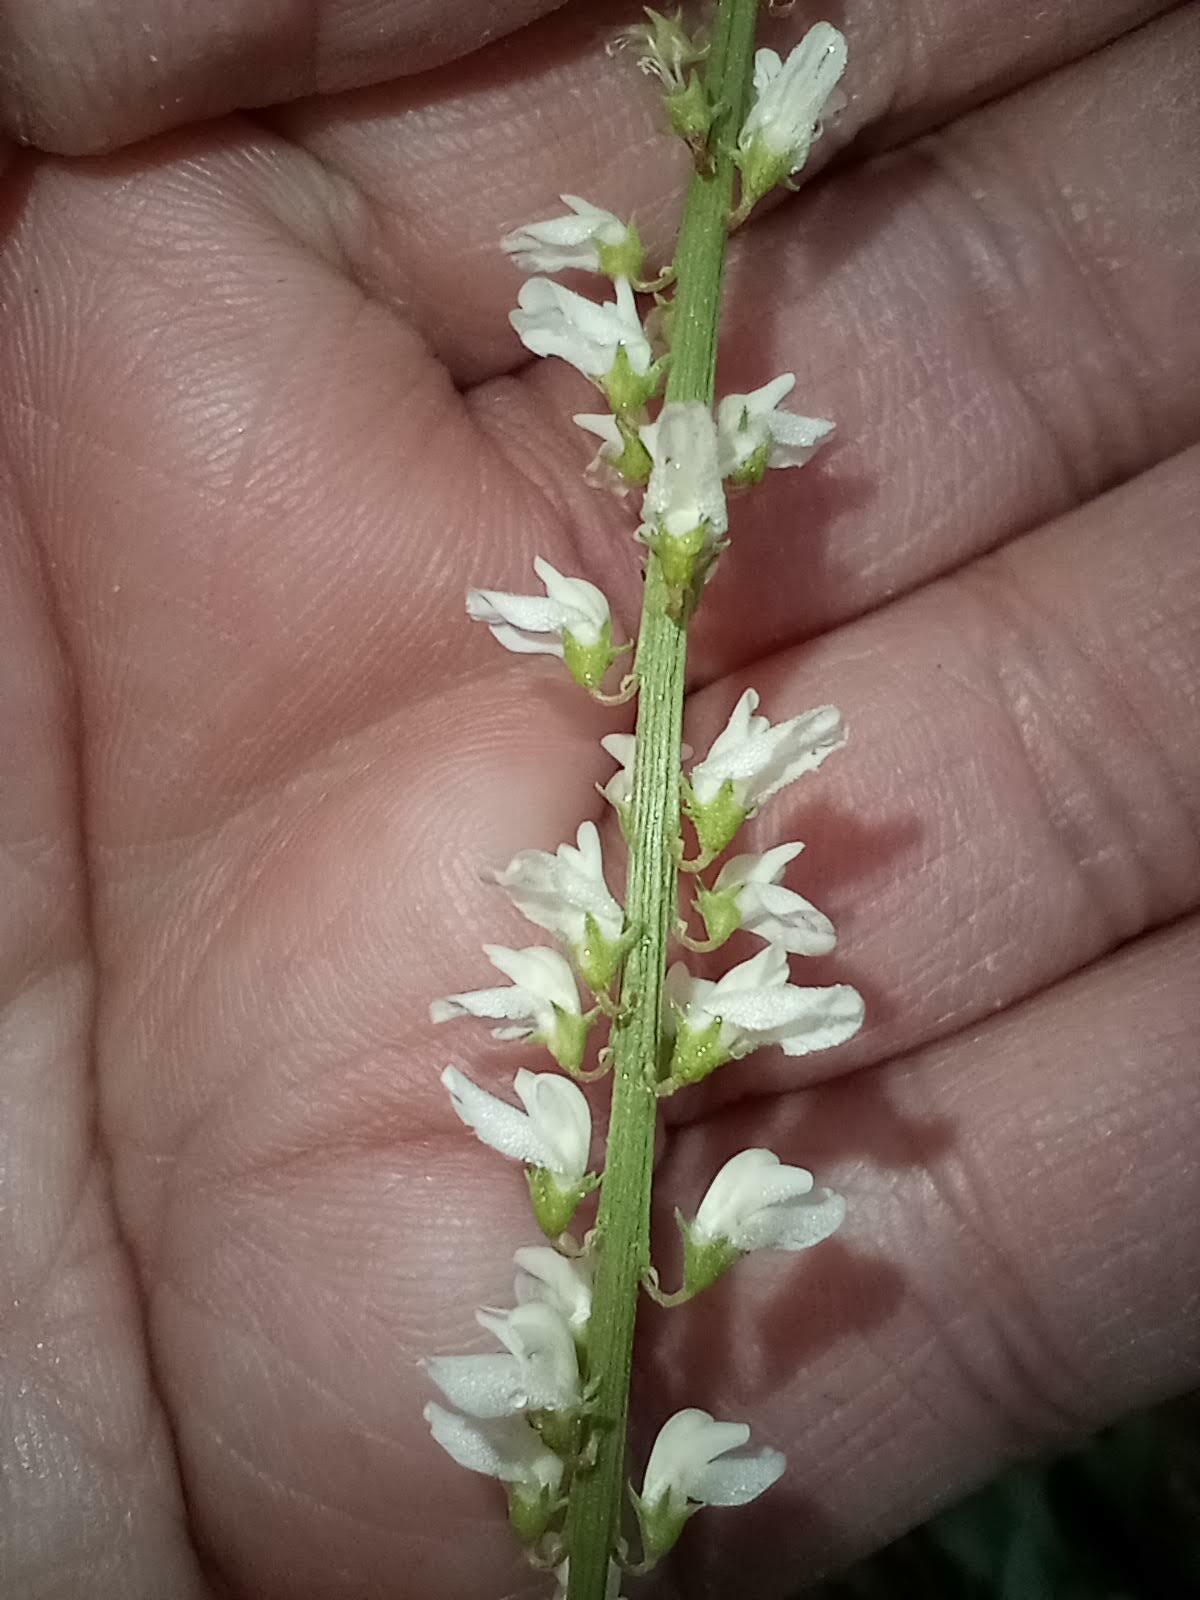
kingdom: Plantae
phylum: Tracheophyta
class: Magnoliopsida
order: Fabales
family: Fabaceae
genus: Melilotus
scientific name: Melilotus albus
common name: White melilot
